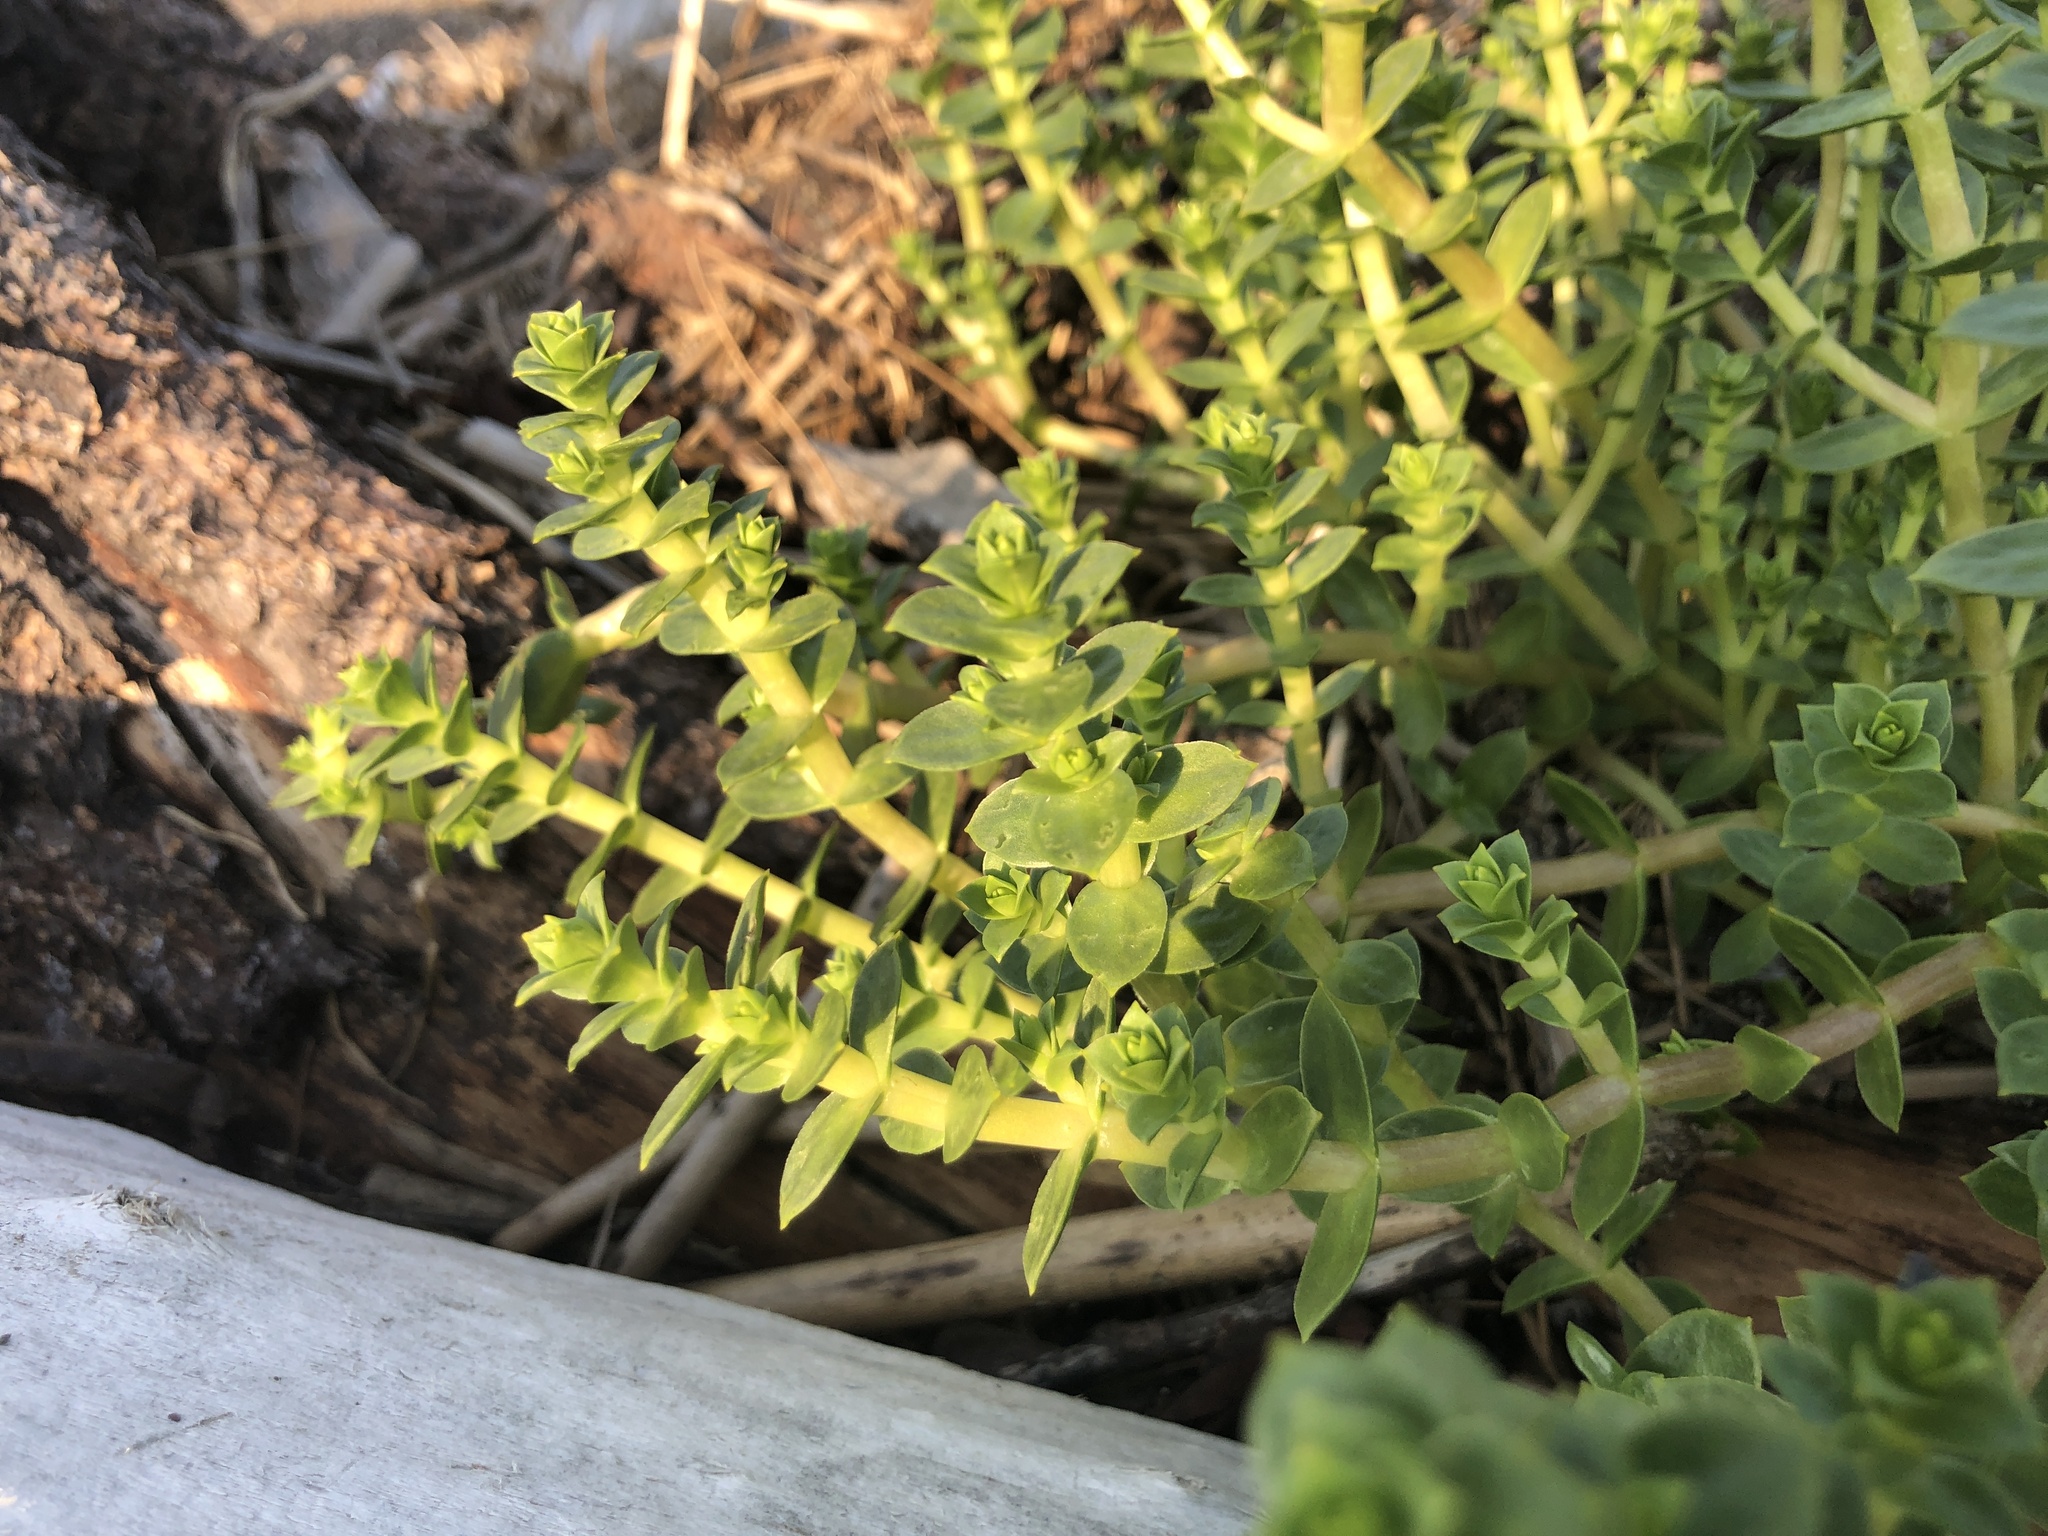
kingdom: Plantae
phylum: Tracheophyta
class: Magnoliopsida
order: Caryophyllales
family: Caryophyllaceae
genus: Honckenya
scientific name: Honckenya peploides
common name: Sea sandwort
